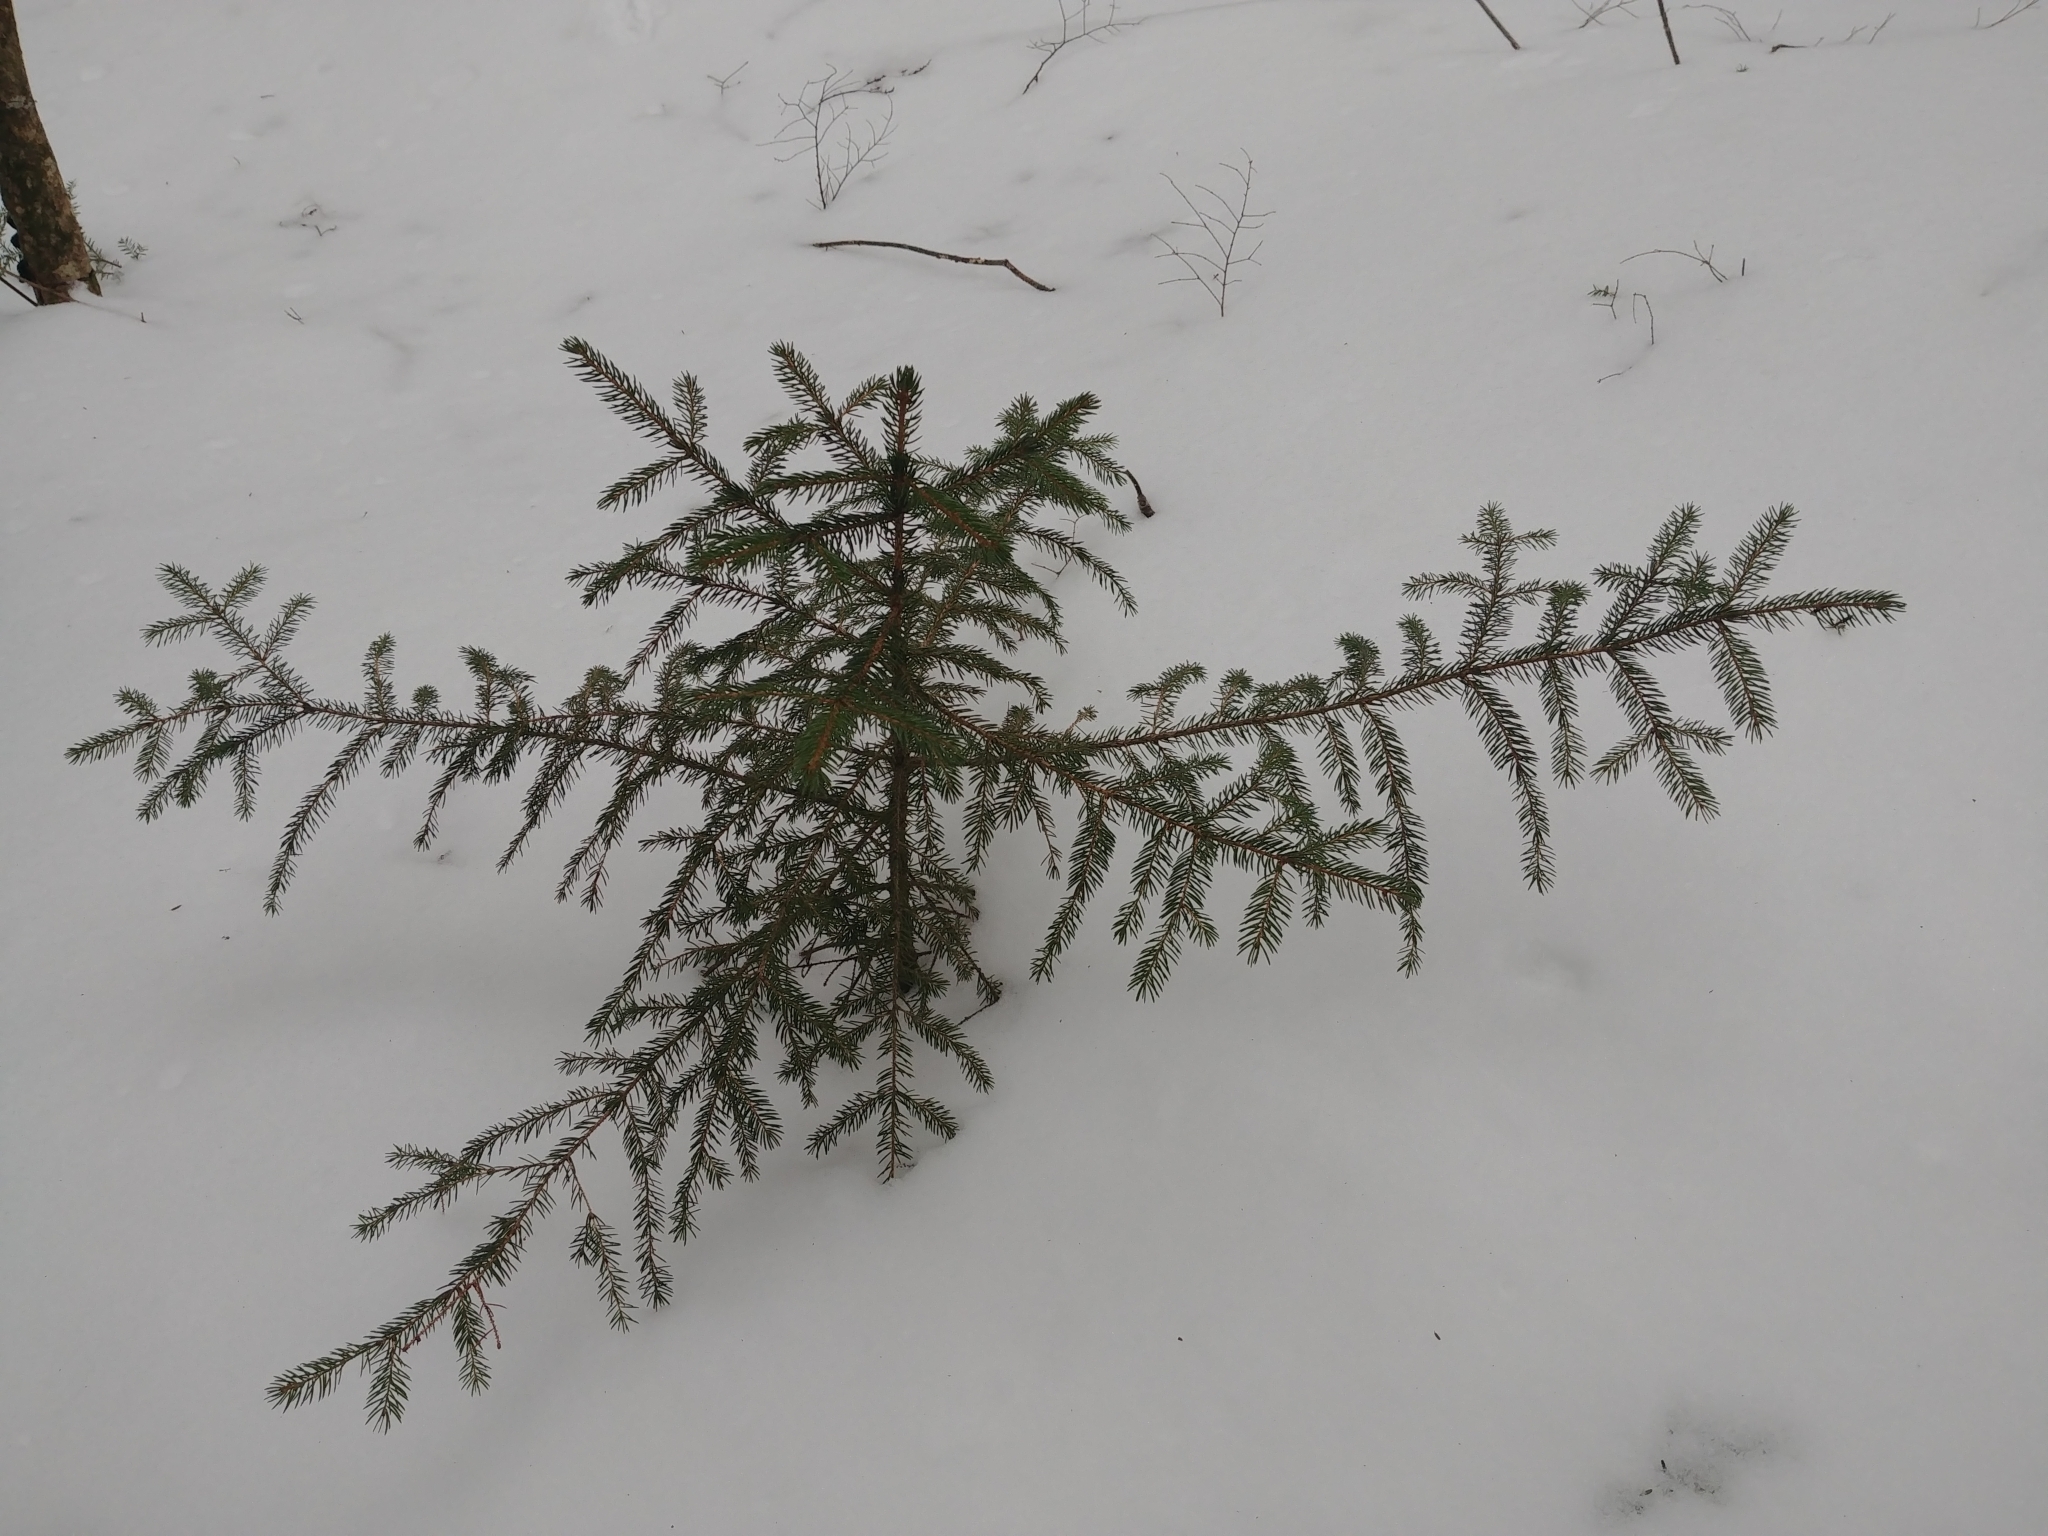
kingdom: Plantae
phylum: Tracheophyta
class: Pinopsida
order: Pinales
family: Pinaceae
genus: Picea
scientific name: Picea rubens
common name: Red spruce
